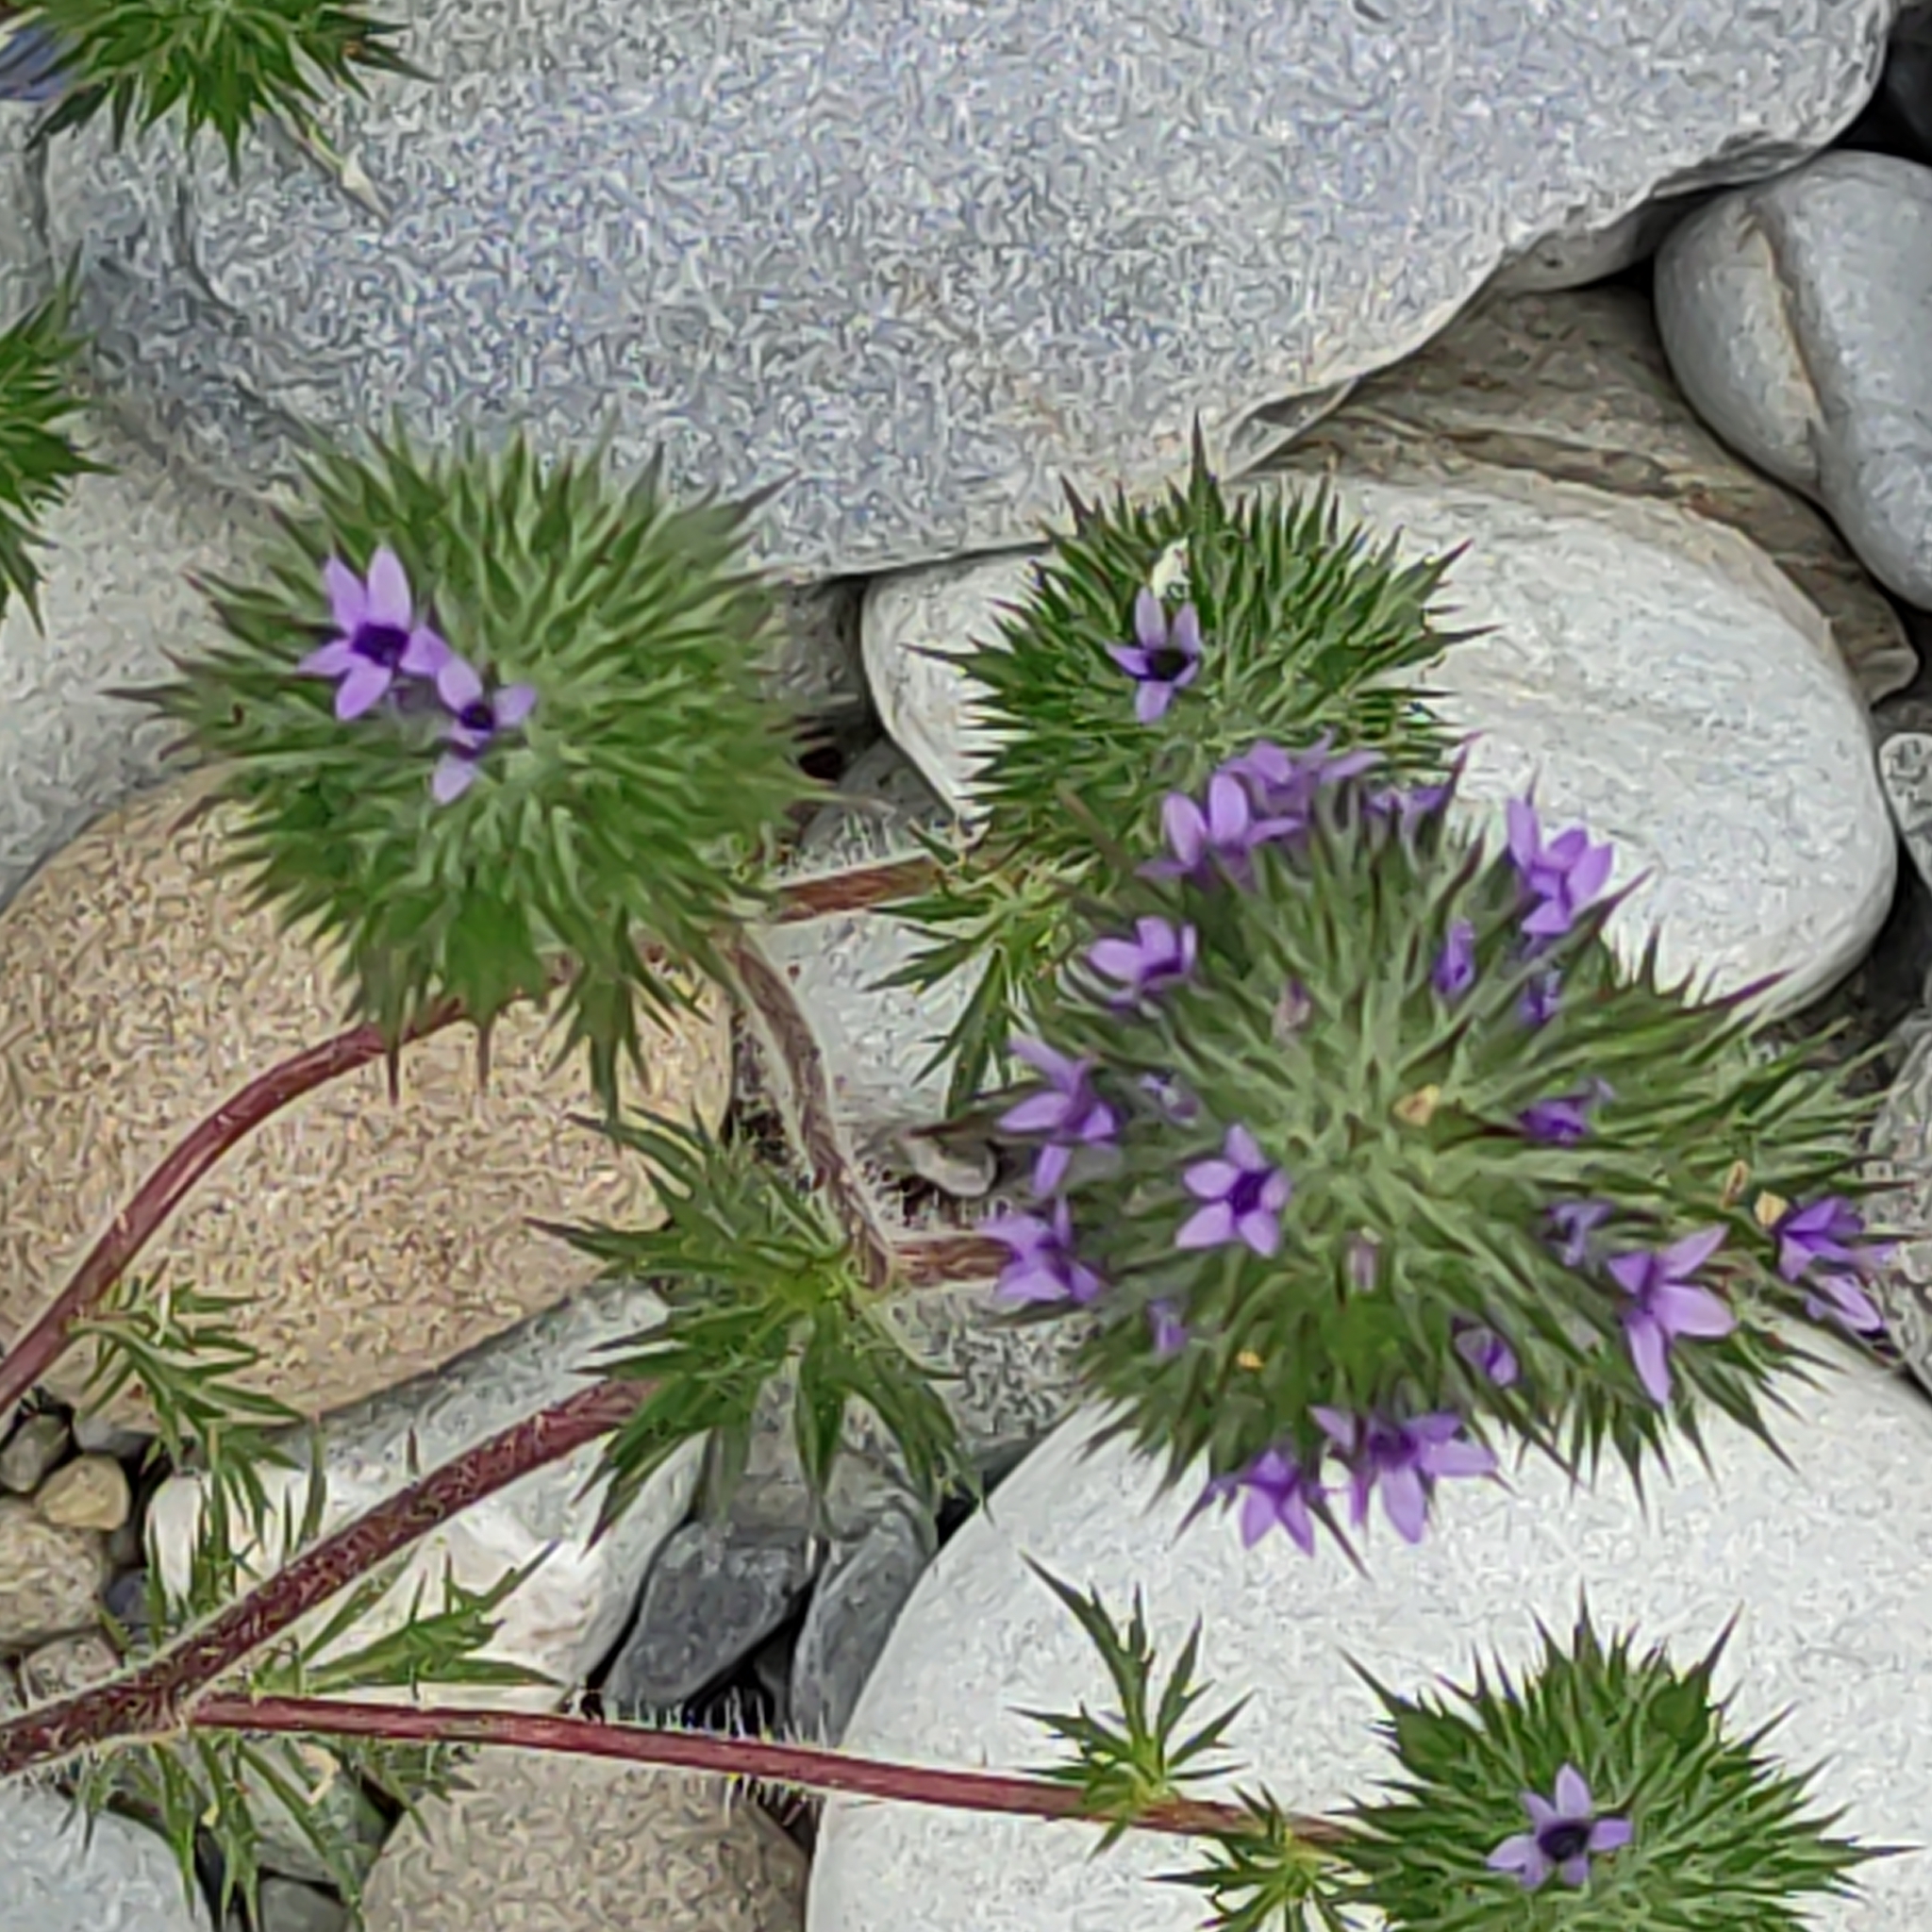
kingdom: Plantae
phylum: Tracheophyta
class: Magnoliopsida
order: Ericales
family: Polemoniaceae
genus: Navarretia
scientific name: Navarretia squarrosa
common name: Skunkweed
